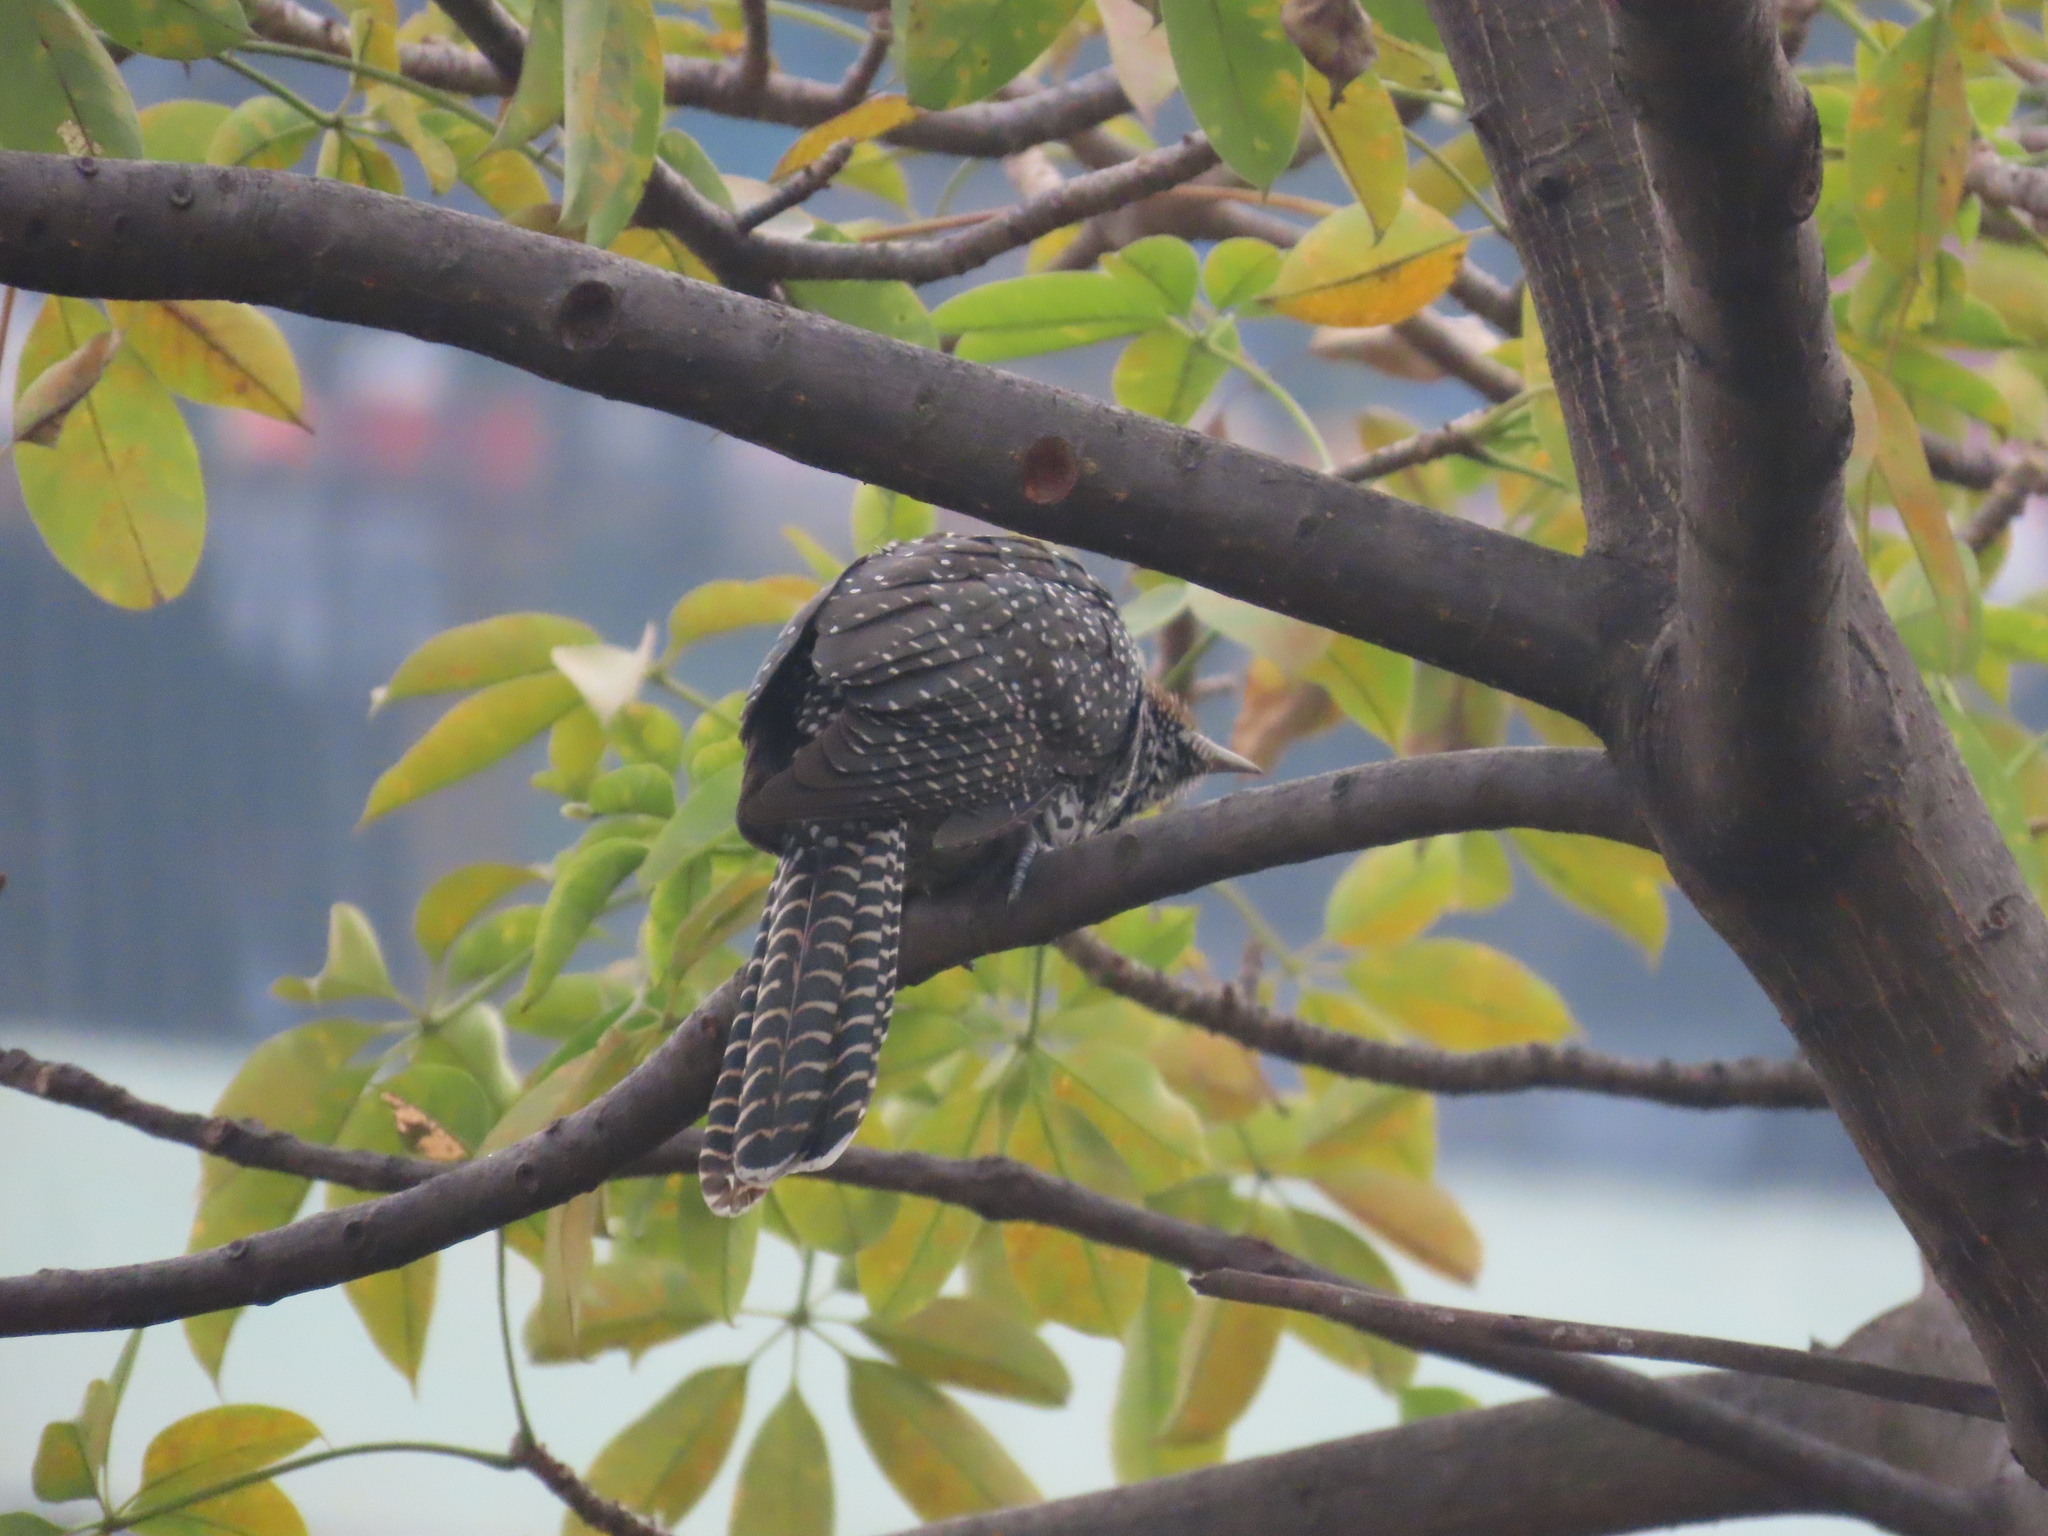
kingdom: Animalia
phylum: Chordata
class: Aves
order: Cuculiformes
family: Cuculidae
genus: Eudynamys
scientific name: Eudynamys scolopaceus
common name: Asian koel
